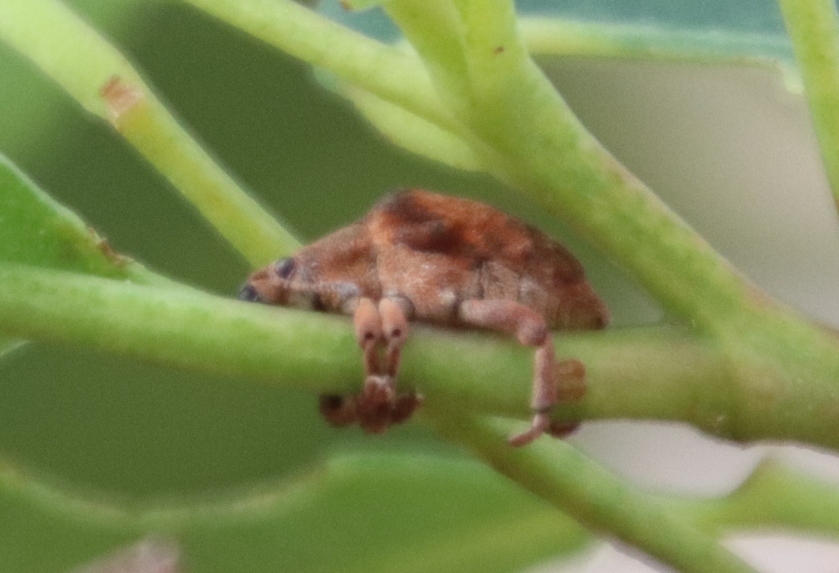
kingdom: Animalia
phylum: Arthropoda
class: Insecta
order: Coleoptera
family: Curculionidae
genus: Gonipterus
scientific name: Gonipterus
